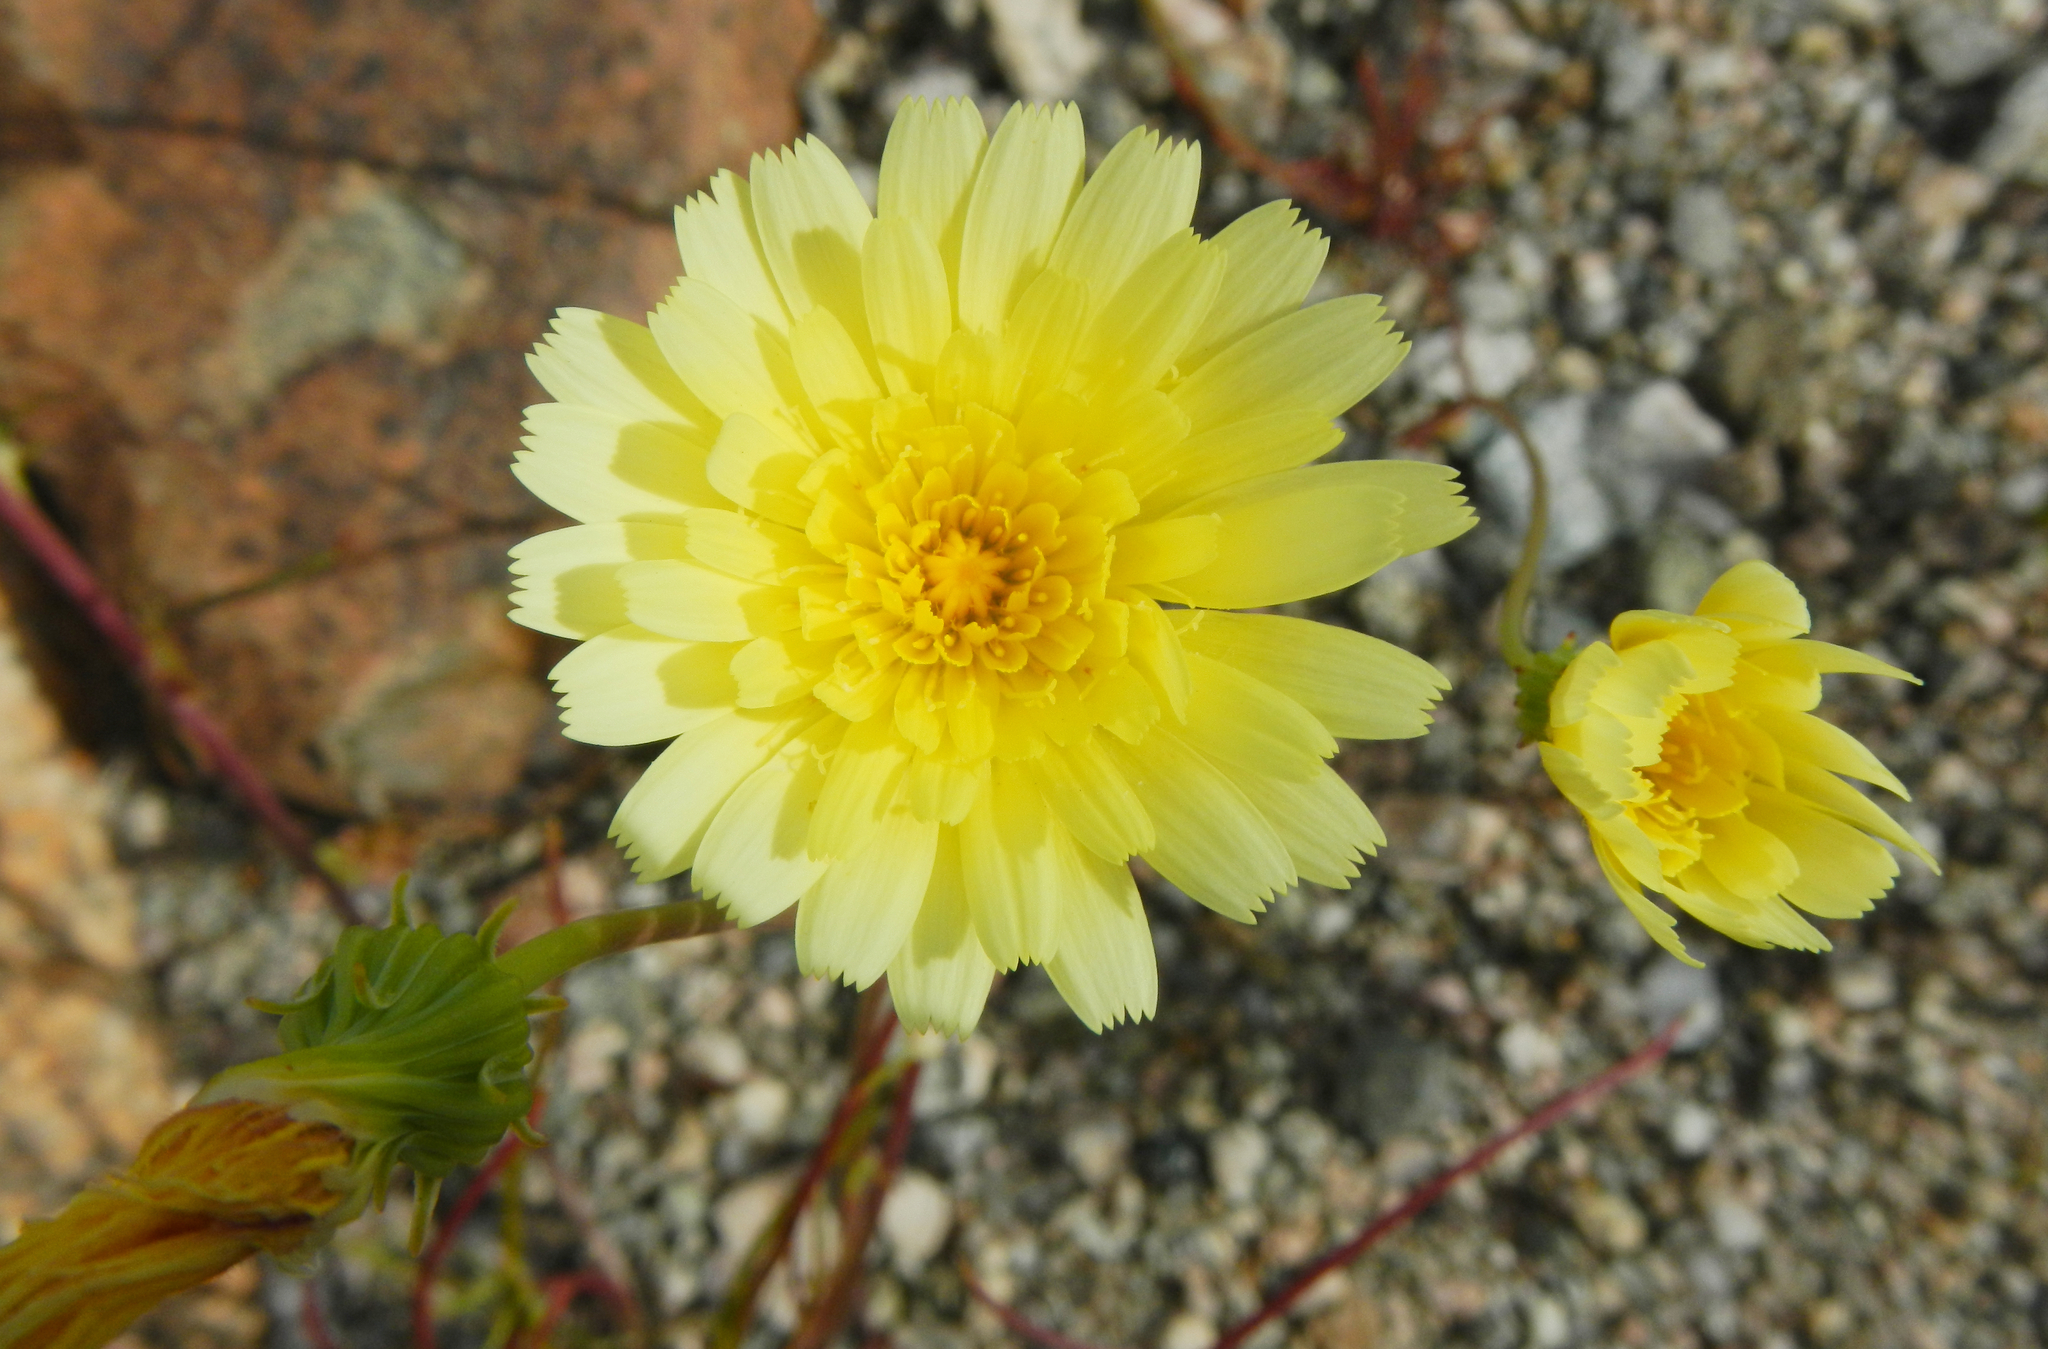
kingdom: Plantae
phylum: Tracheophyta
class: Magnoliopsida
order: Asterales
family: Asteraceae
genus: Malacothrix
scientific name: Malacothrix glabrata
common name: Smooth desert-dandelion
